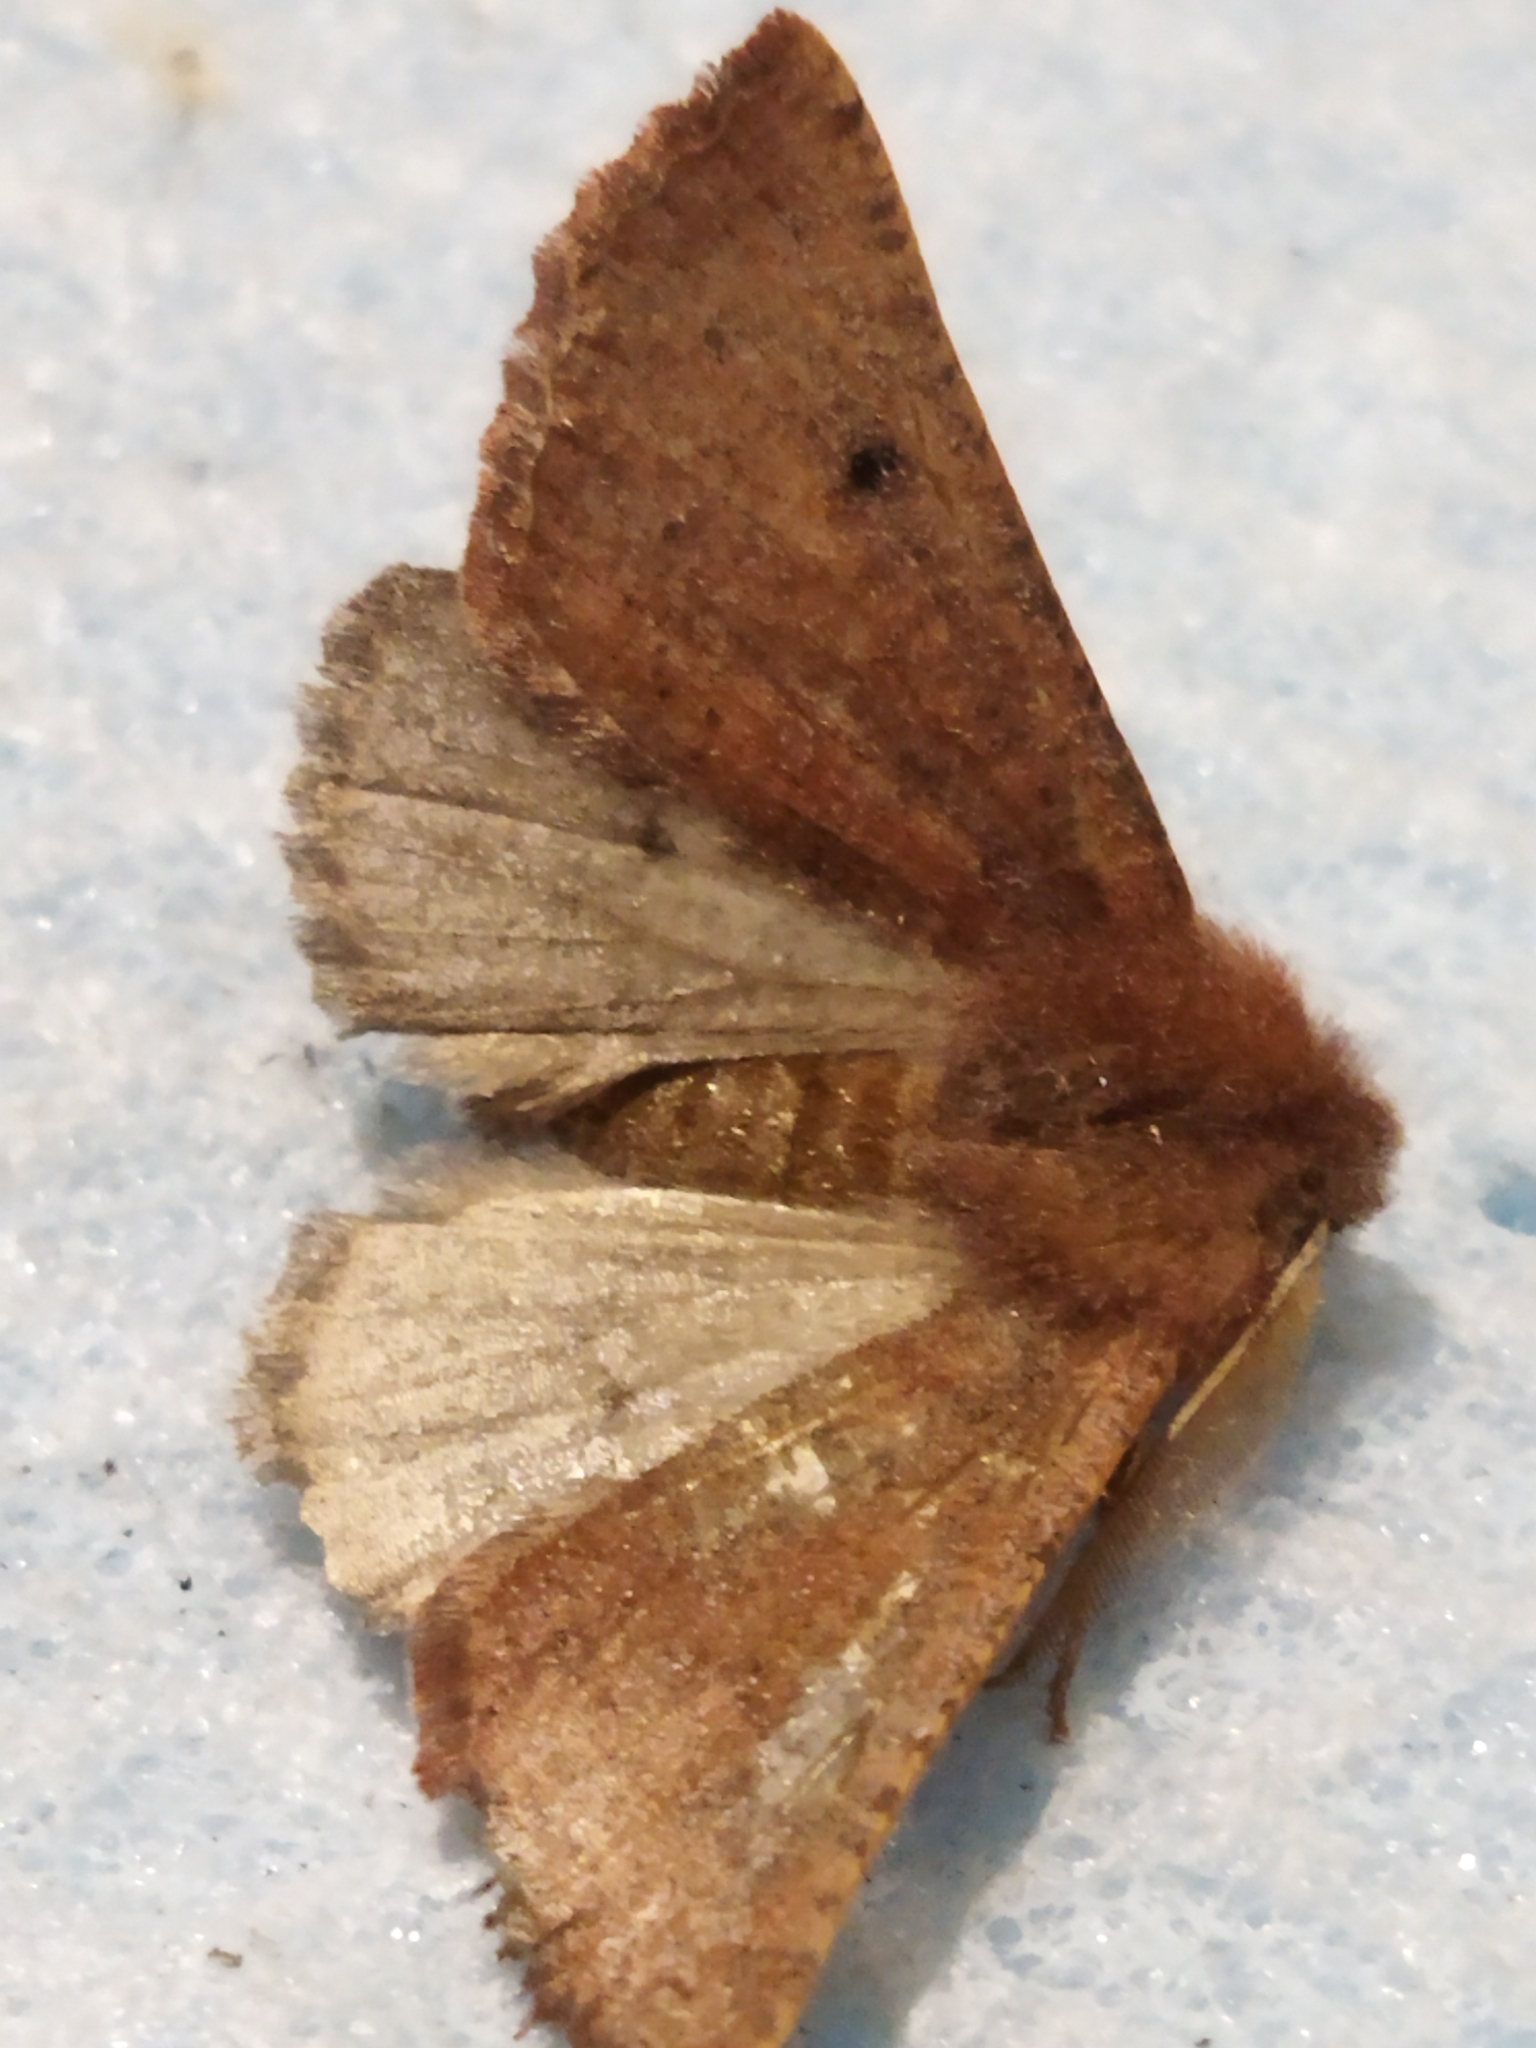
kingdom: Animalia
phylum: Arthropoda
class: Insecta
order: Lepidoptera
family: Geometridae
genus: Dasycorsa
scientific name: Dasycorsa modesta
